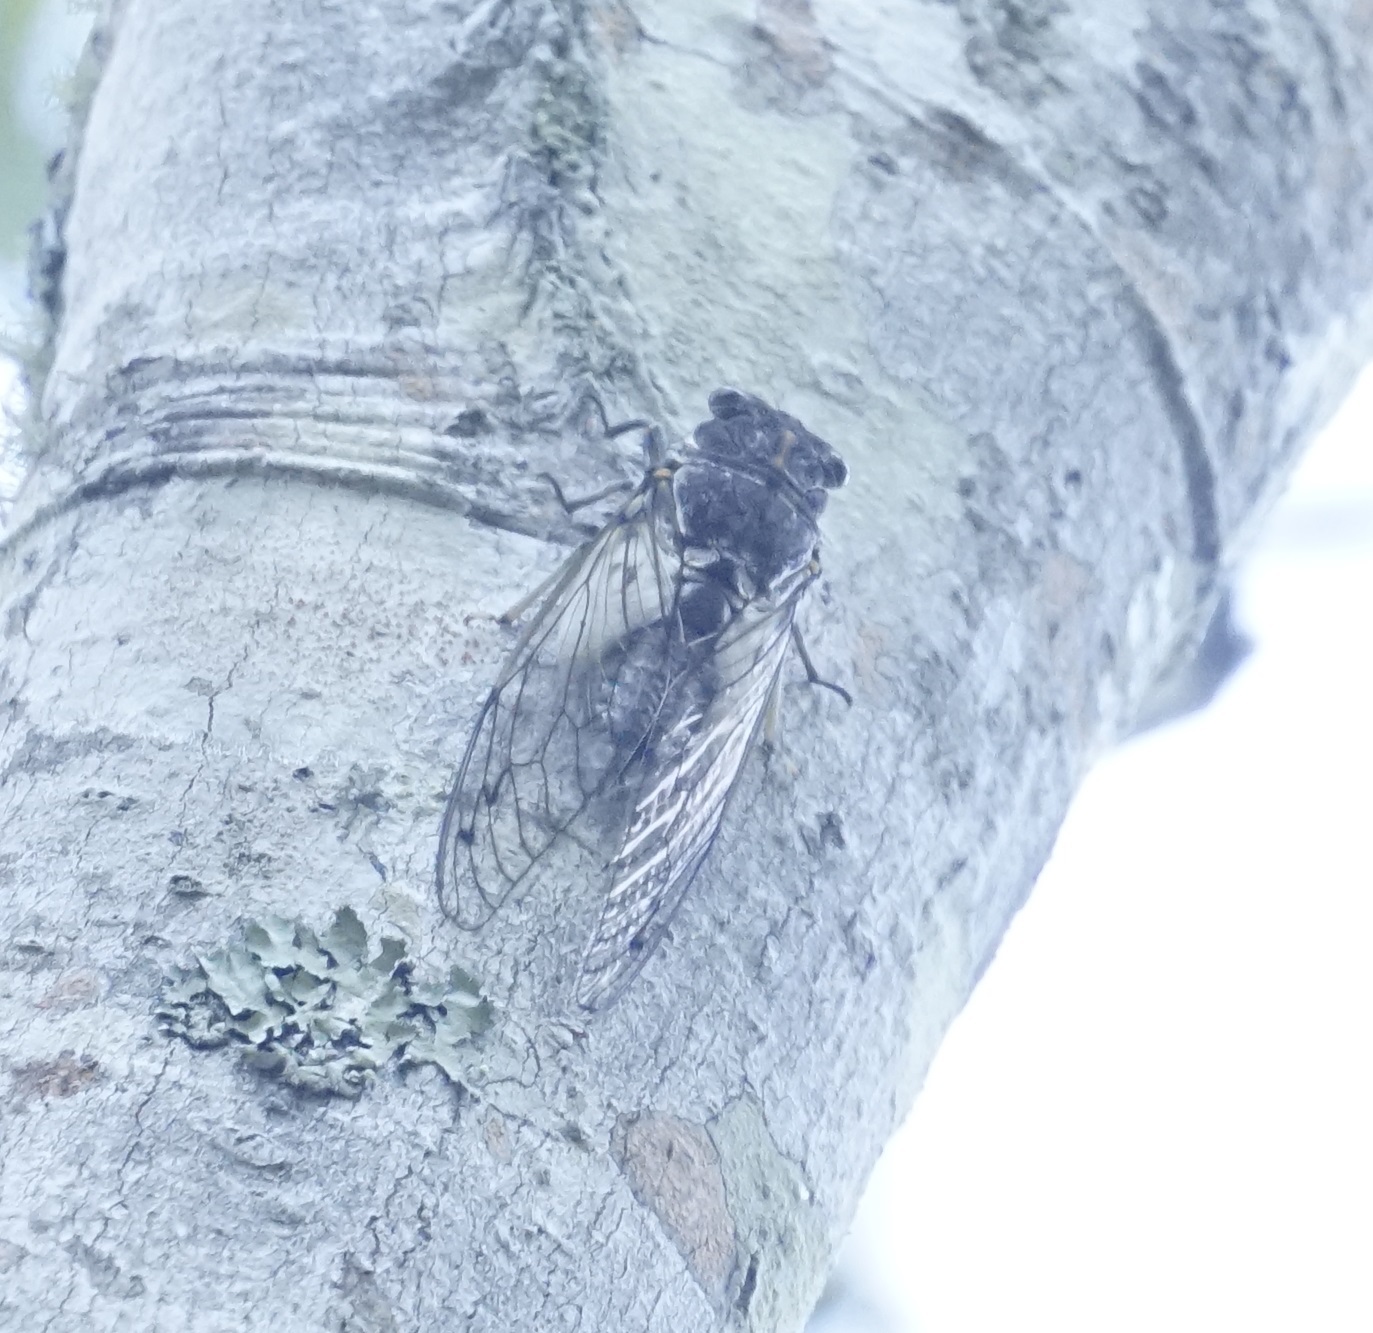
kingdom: Animalia
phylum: Arthropoda
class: Insecta
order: Hemiptera
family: Cicadidae
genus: Arunta
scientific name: Arunta perulata
